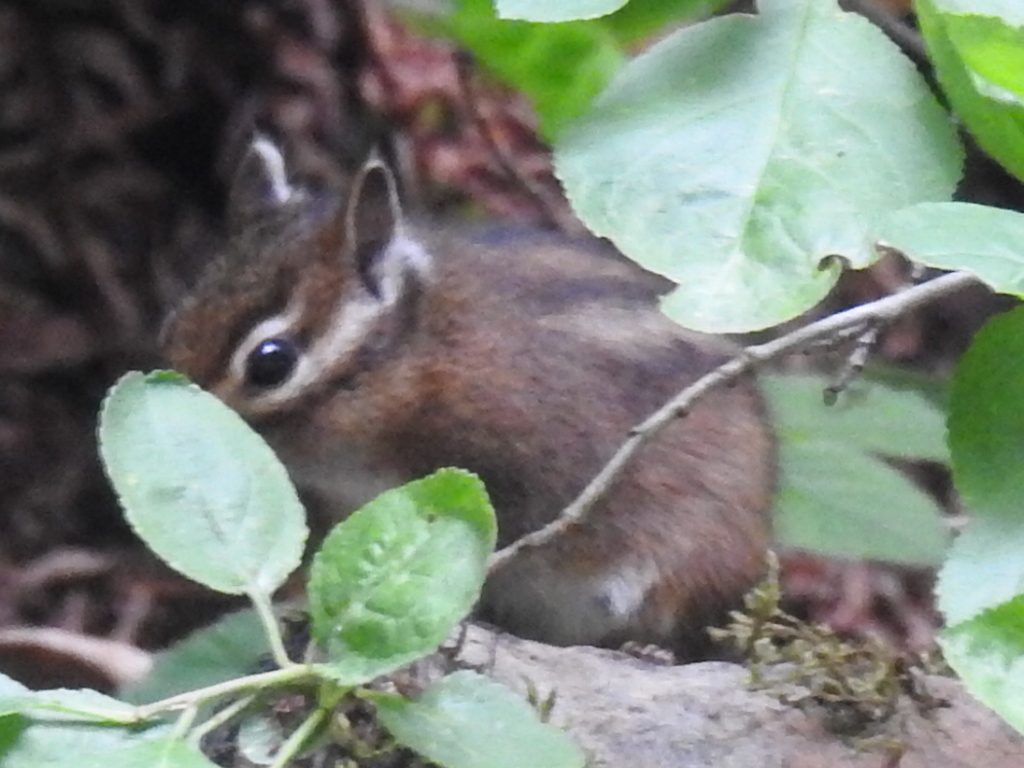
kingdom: Animalia
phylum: Chordata
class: Mammalia
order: Rodentia
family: Sciuridae
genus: Tamias
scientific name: Tamias townsendii
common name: Townsend's chipmunk
